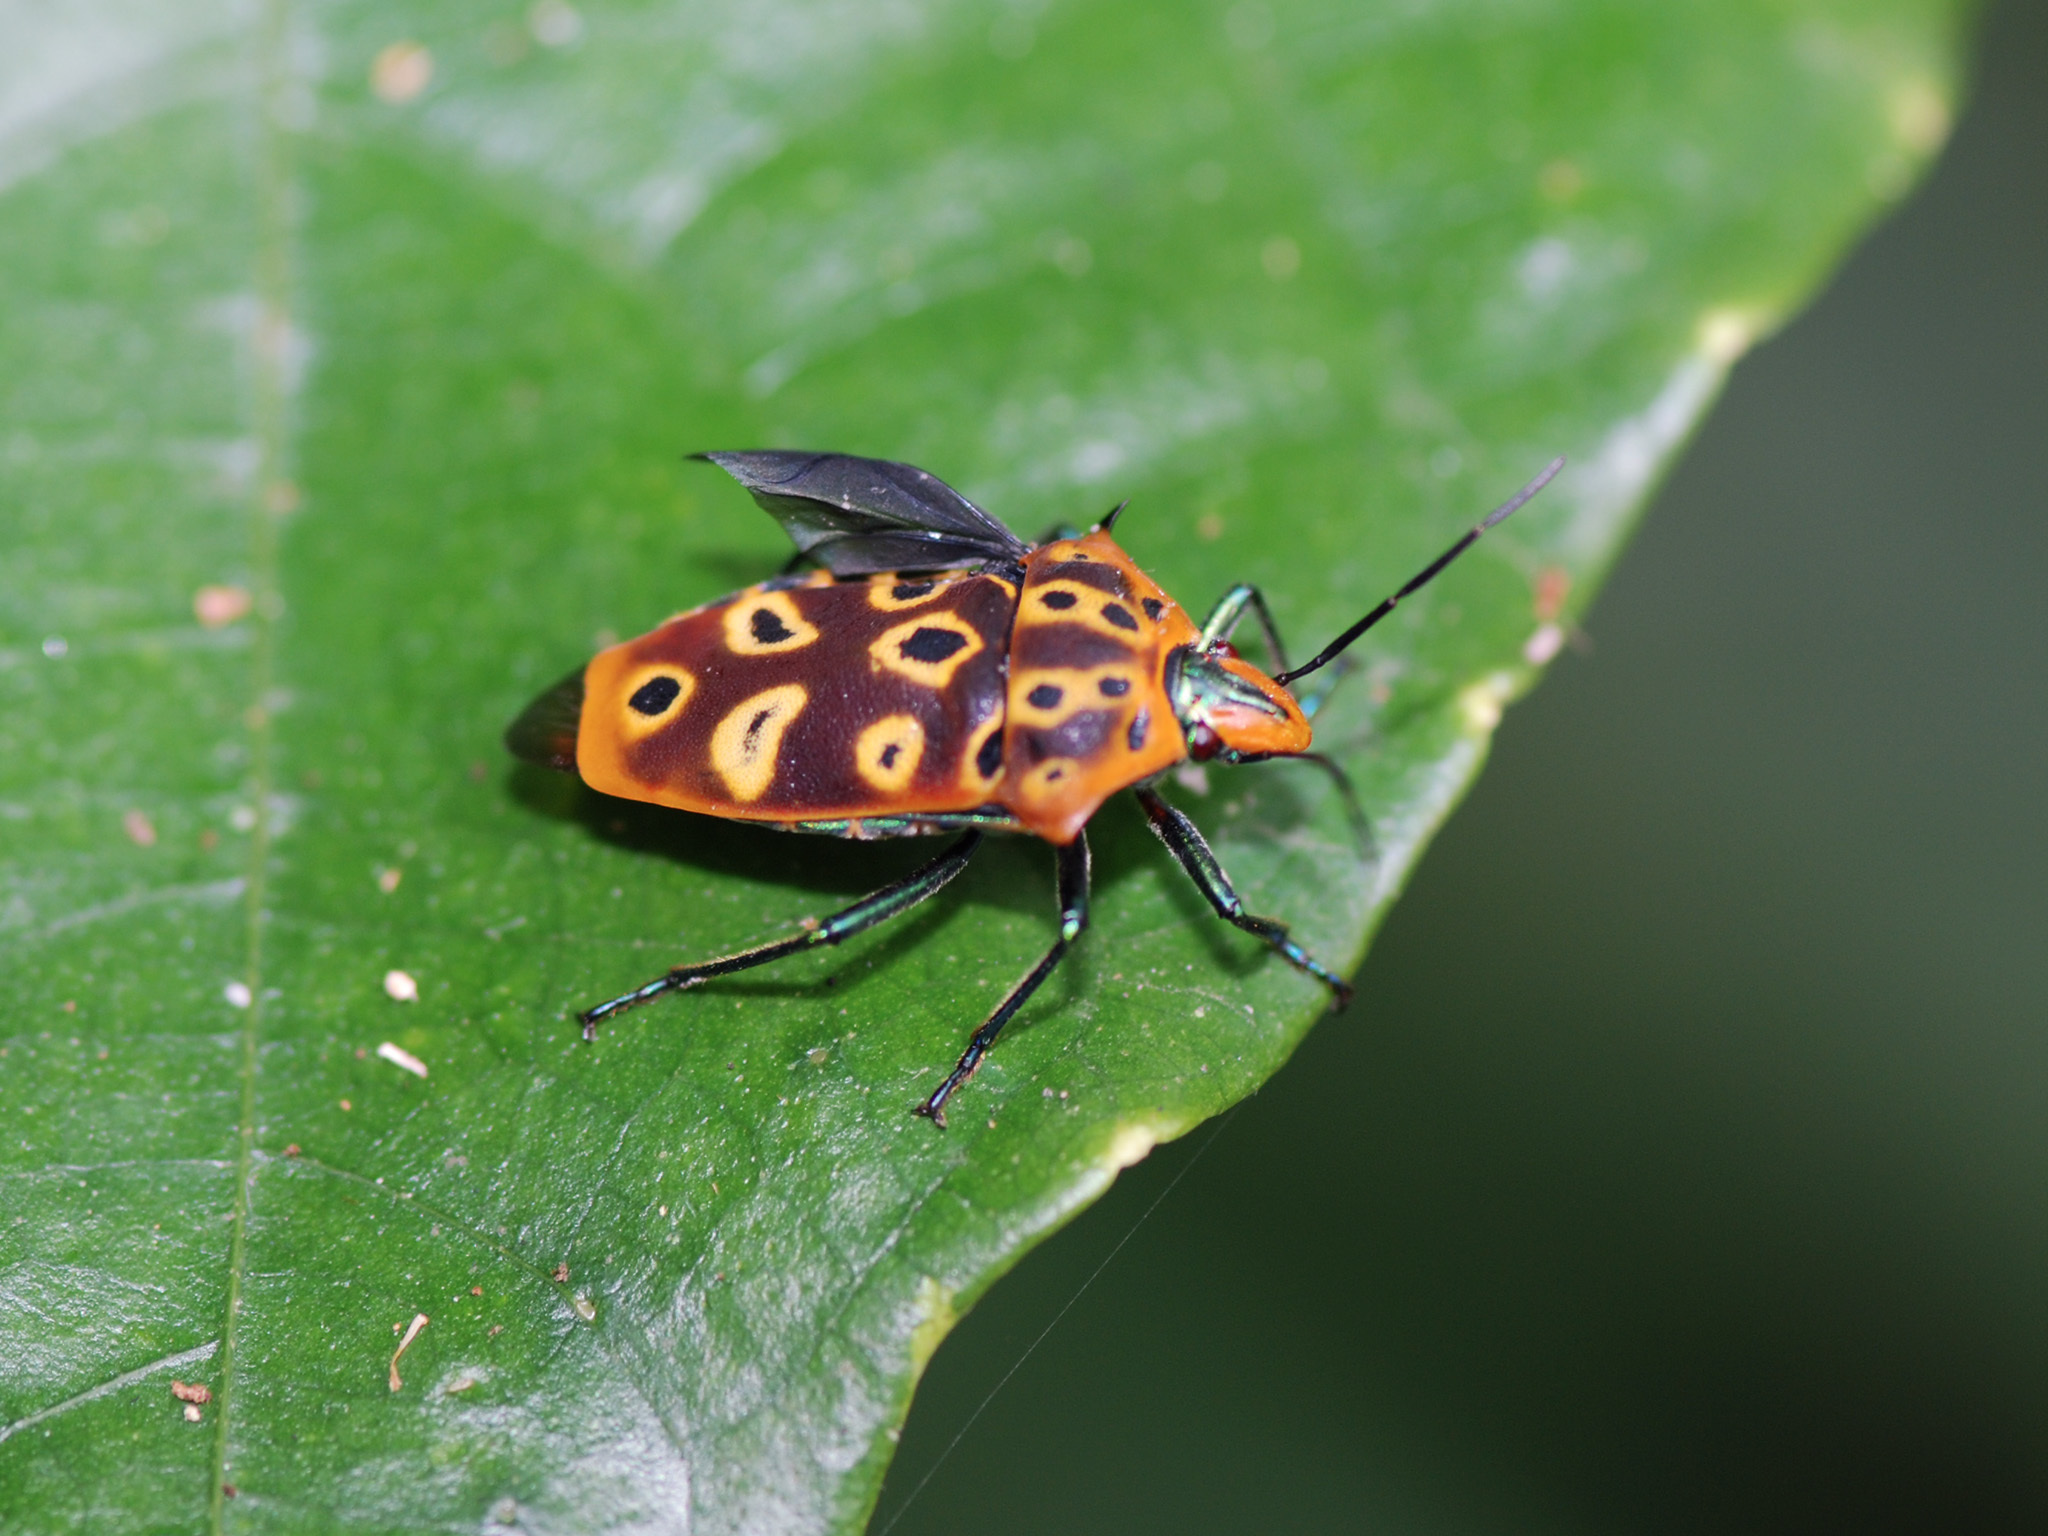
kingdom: Animalia
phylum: Arthropoda
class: Insecta
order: Hemiptera
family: Scutelleridae
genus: Cantao
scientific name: Cantao ocellatus
